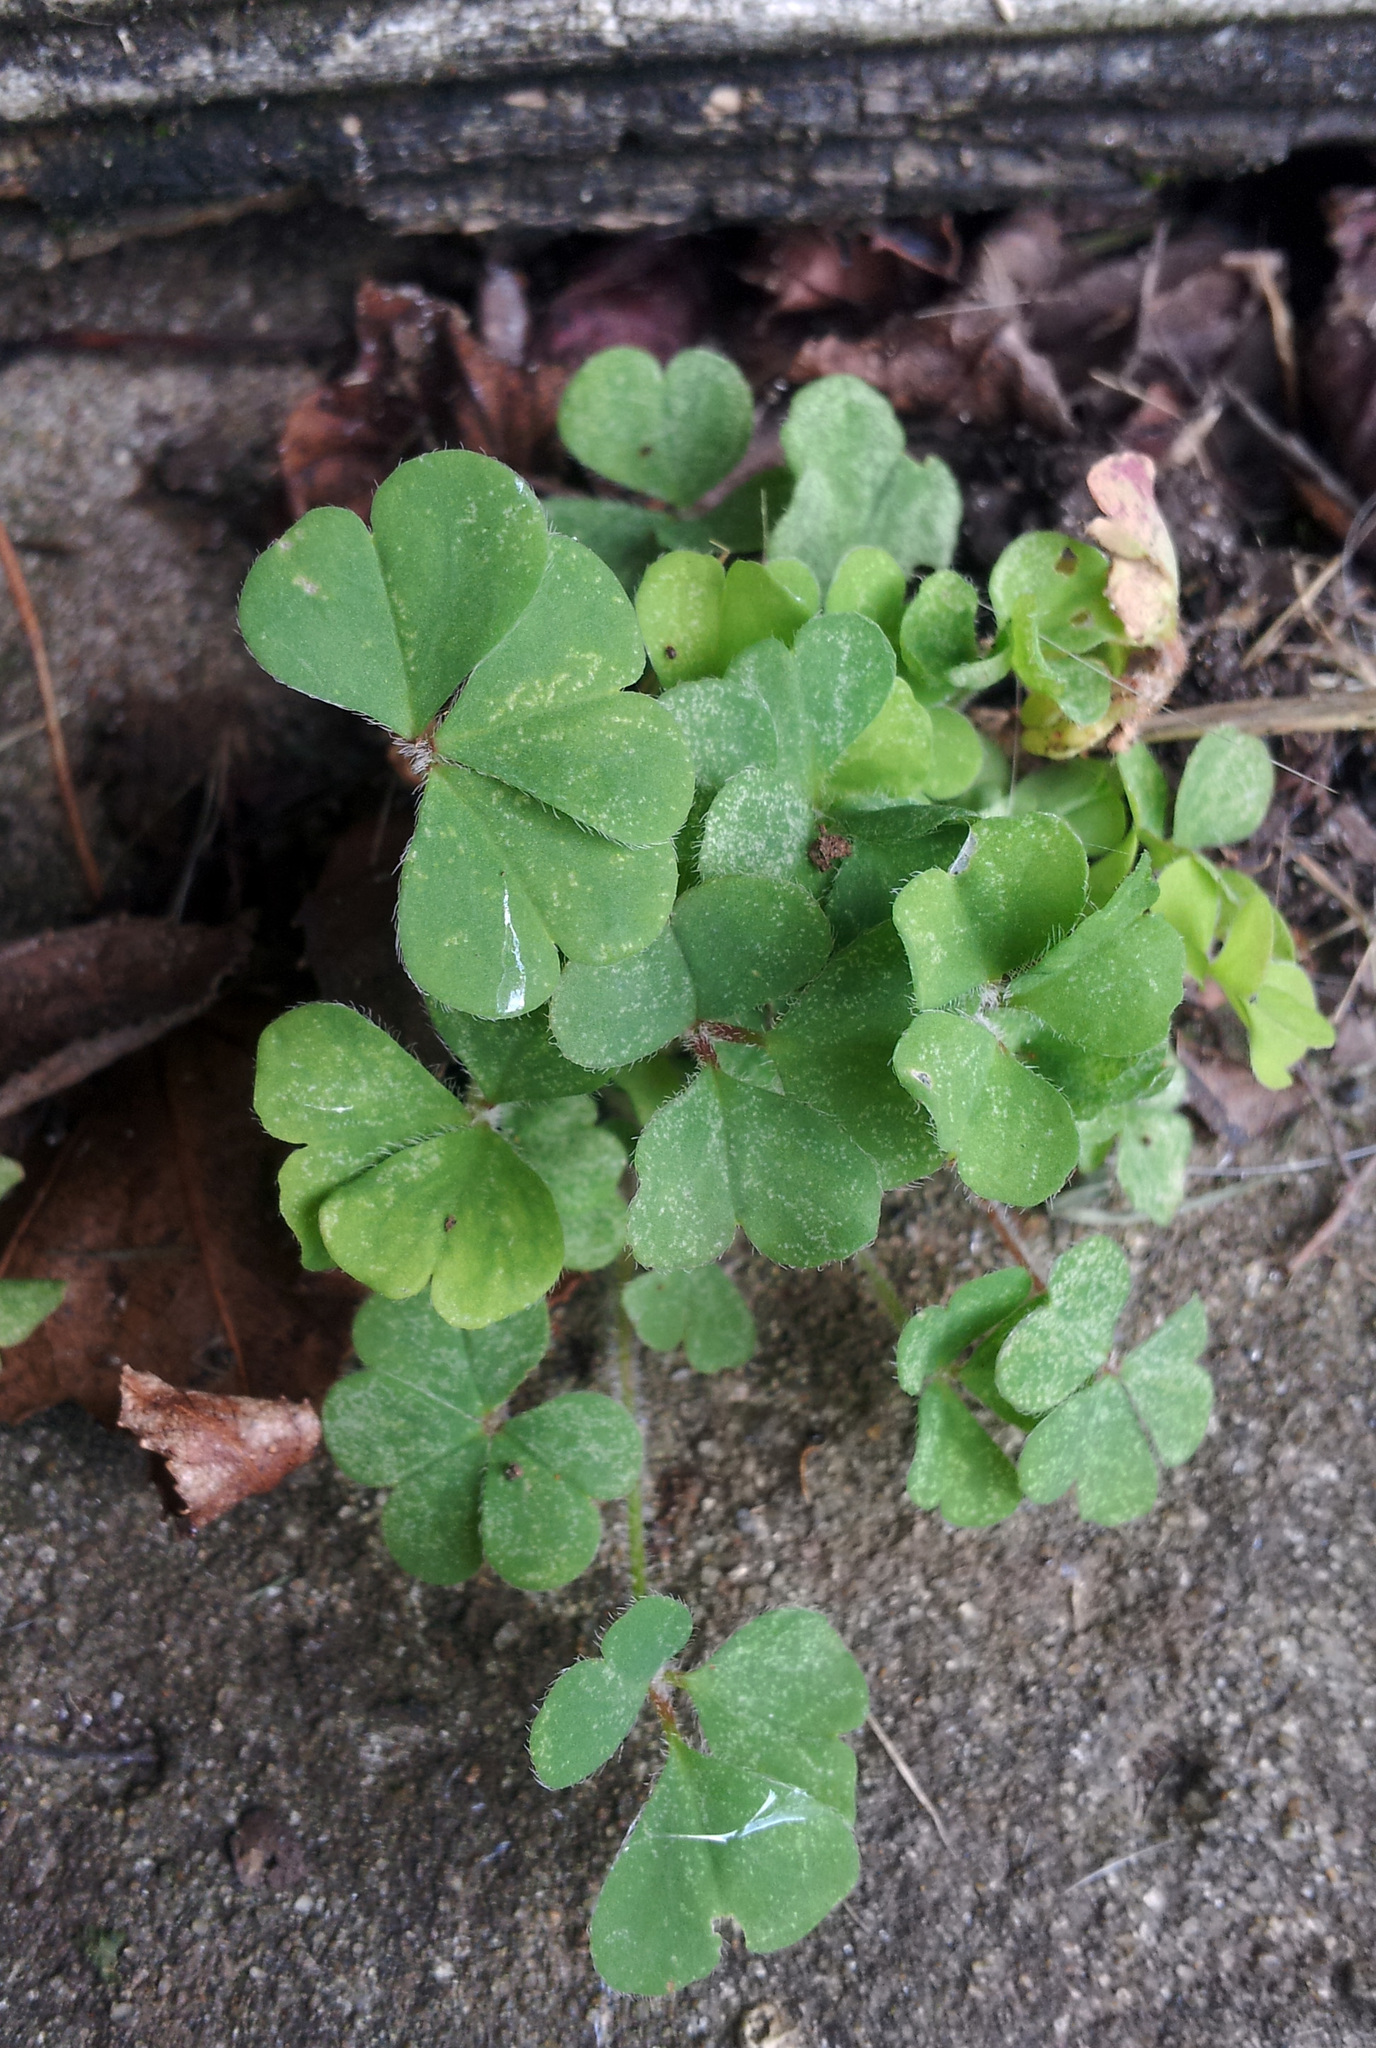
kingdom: Plantae
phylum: Tracheophyta
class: Magnoliopsida
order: Oxalidales
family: Oxalidaceae
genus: Oxalis
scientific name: Oxalis chnoodes
